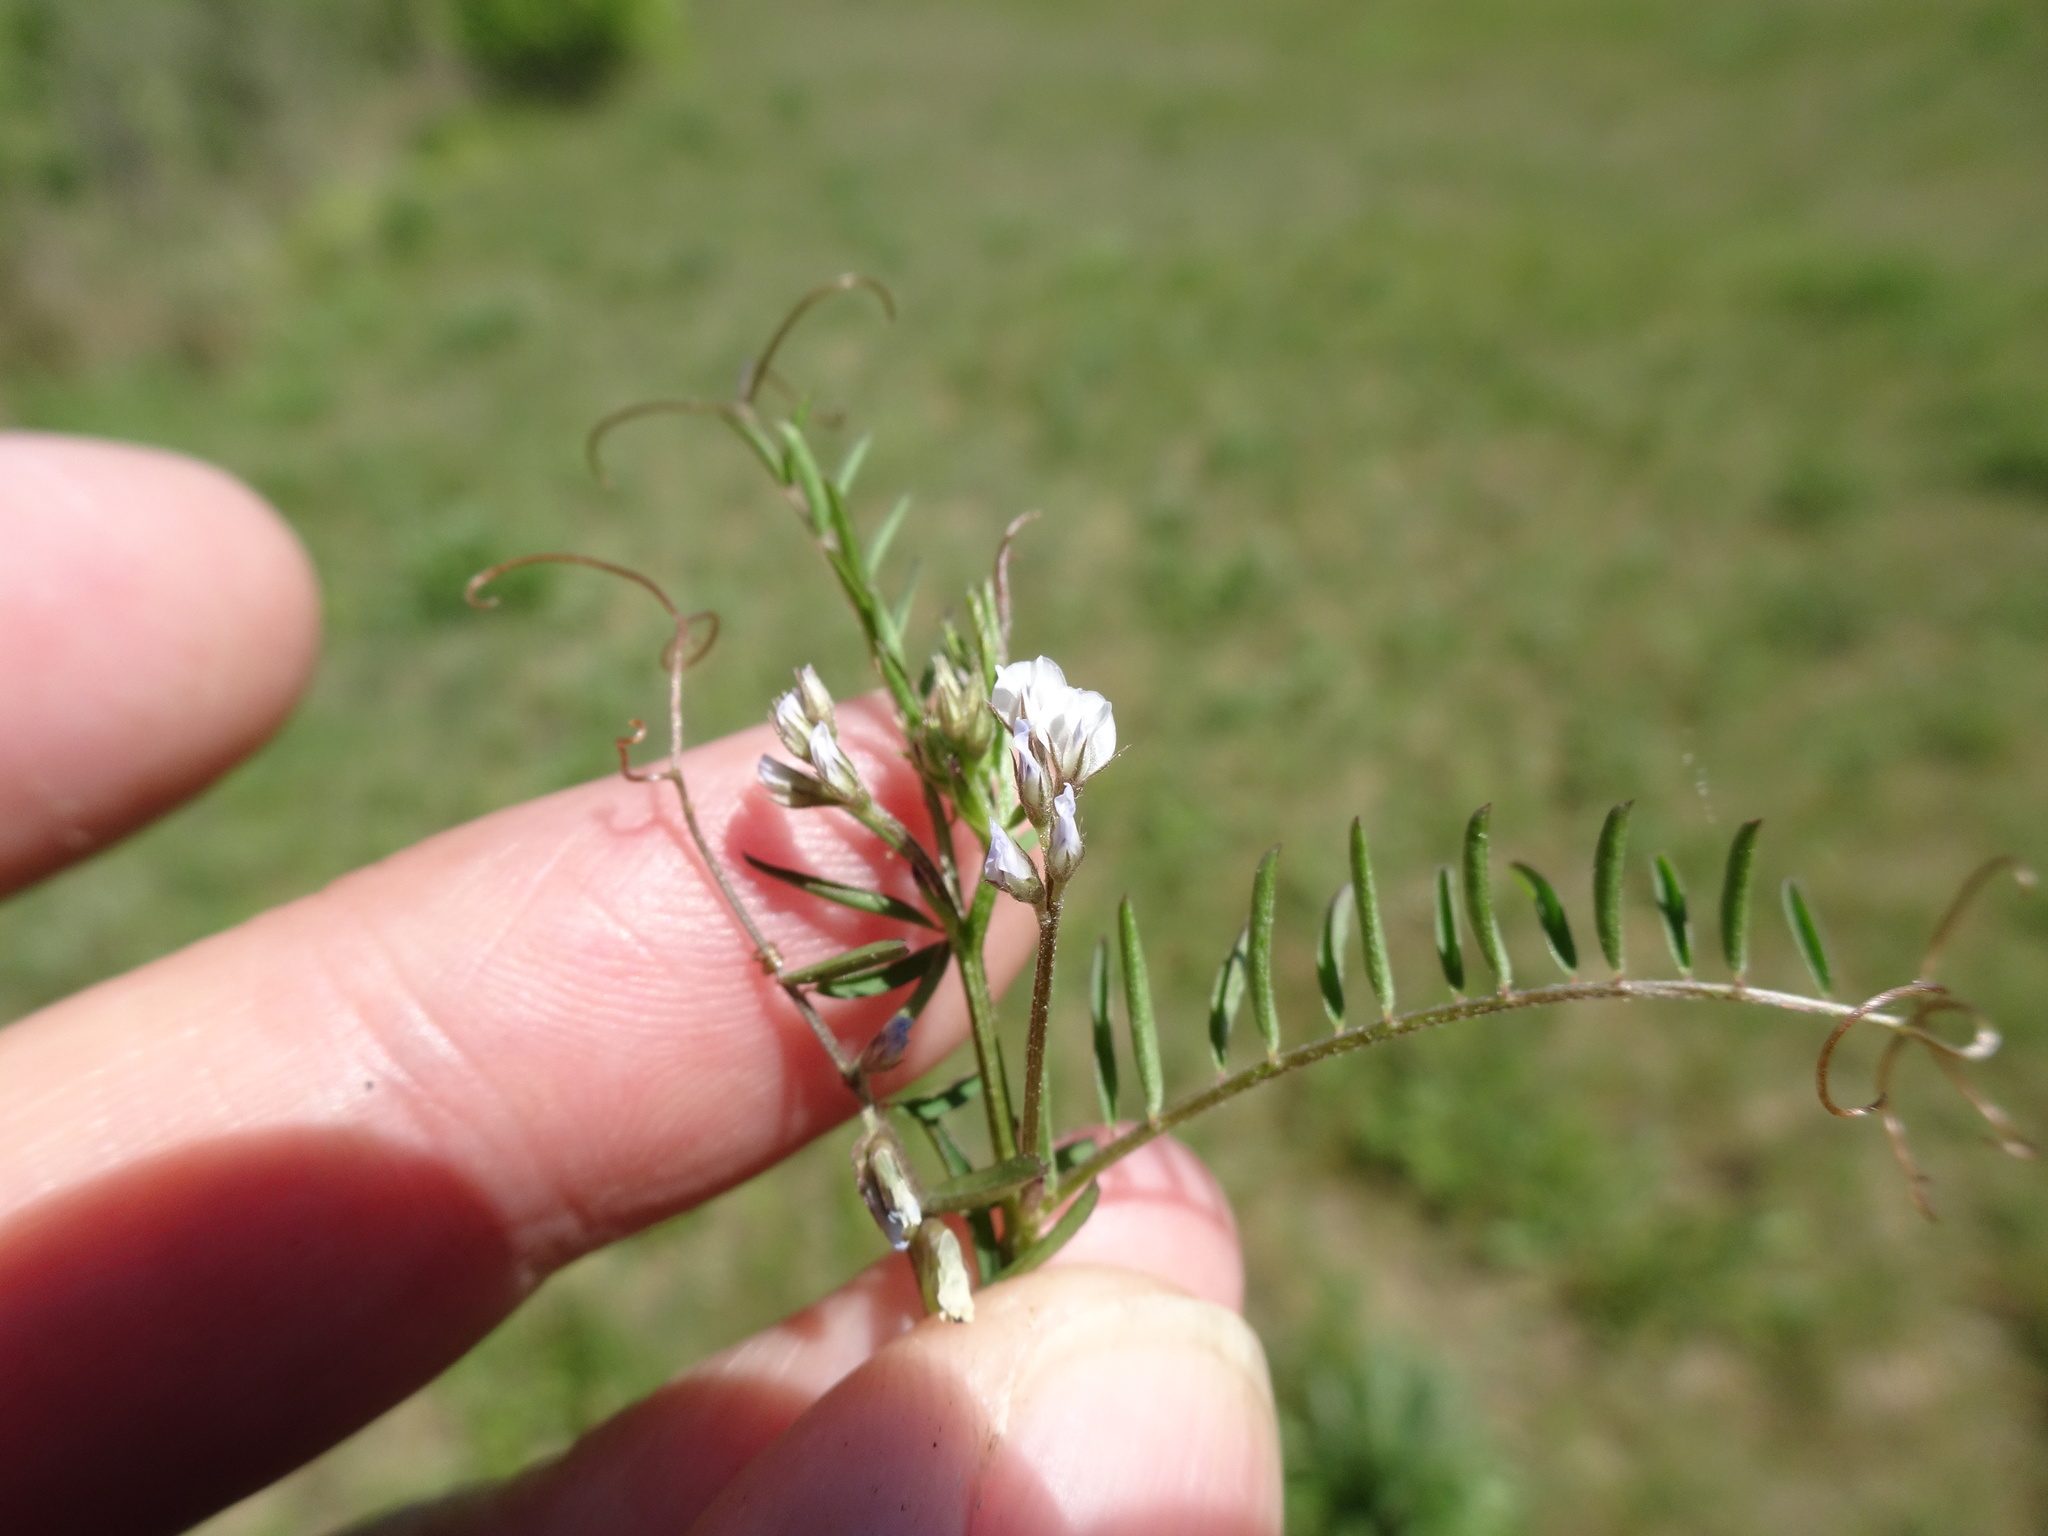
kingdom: Plantae
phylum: Tracheophyta
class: Magnoliopsida
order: Fabales
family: Fabaceae
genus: Vicia
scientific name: Vicia hirsuta
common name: Tiny vetch
